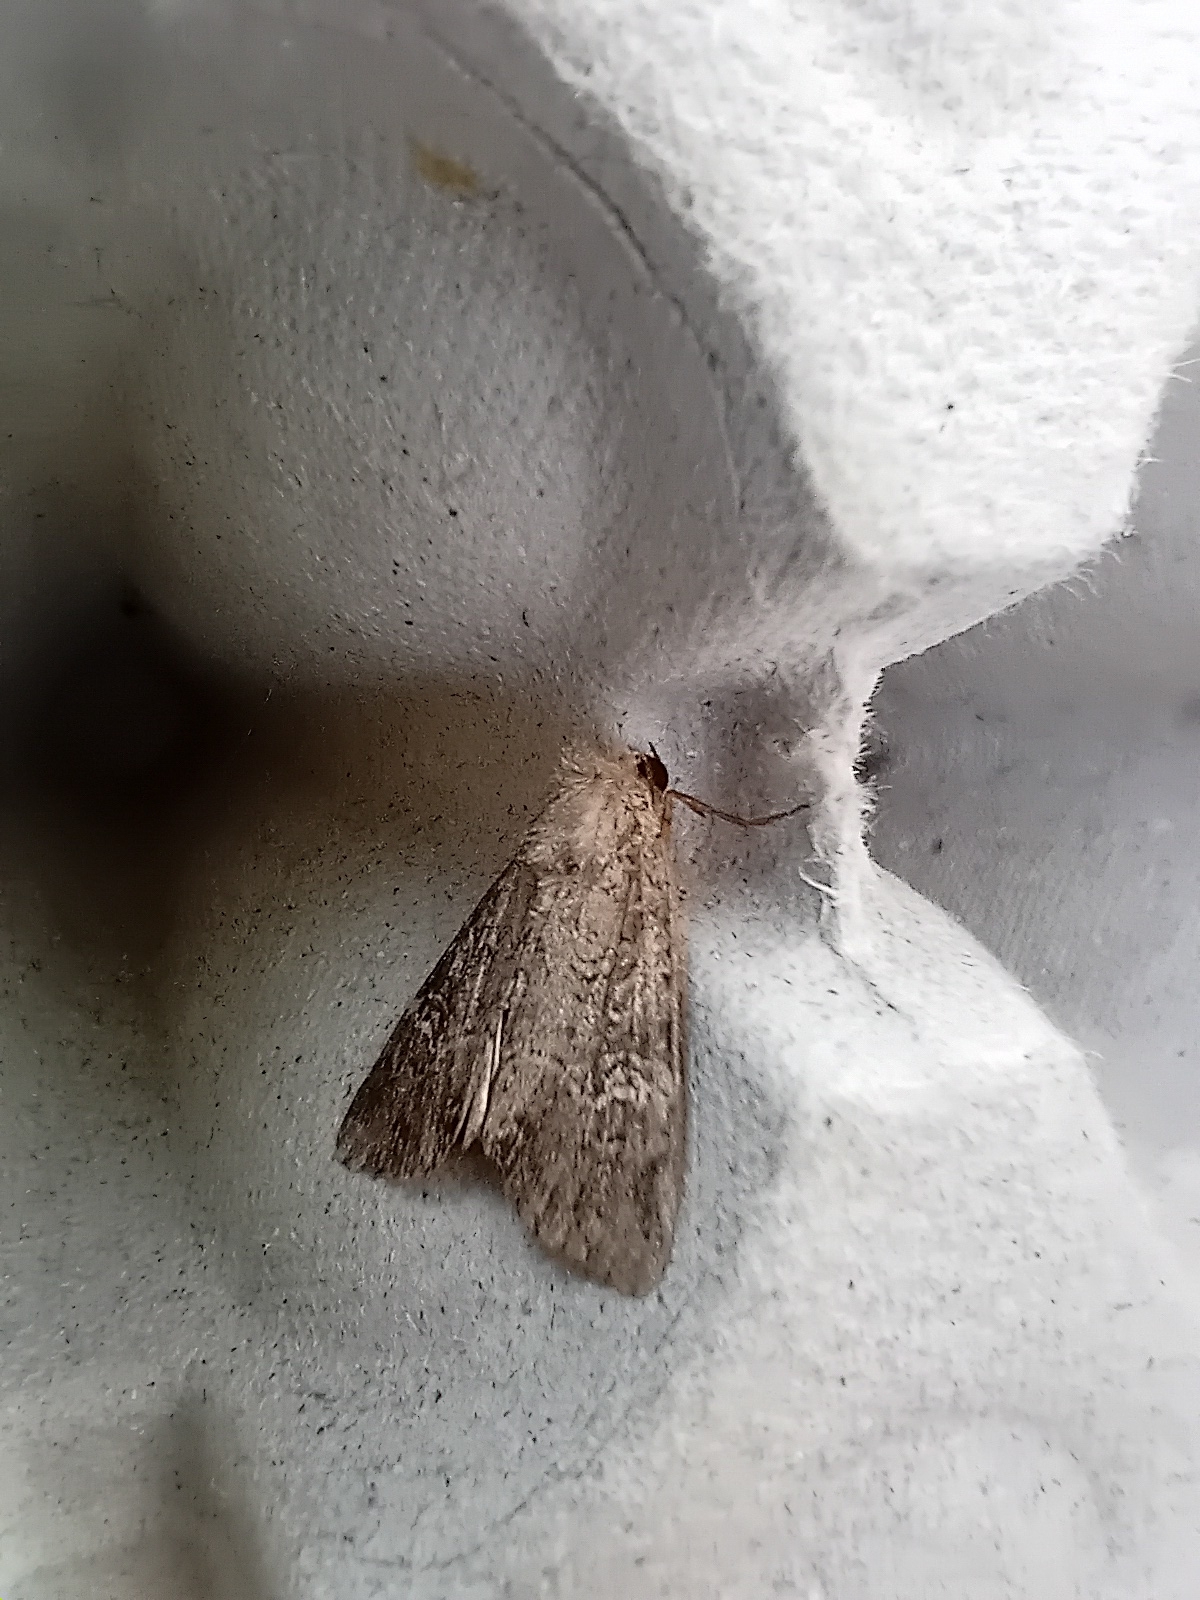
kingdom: Animalia
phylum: Arthropoda
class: Insecta
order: Lepidoptera
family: Noctuidae
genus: Apamea
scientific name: Apamea unanimis
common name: Small clouded brindle
